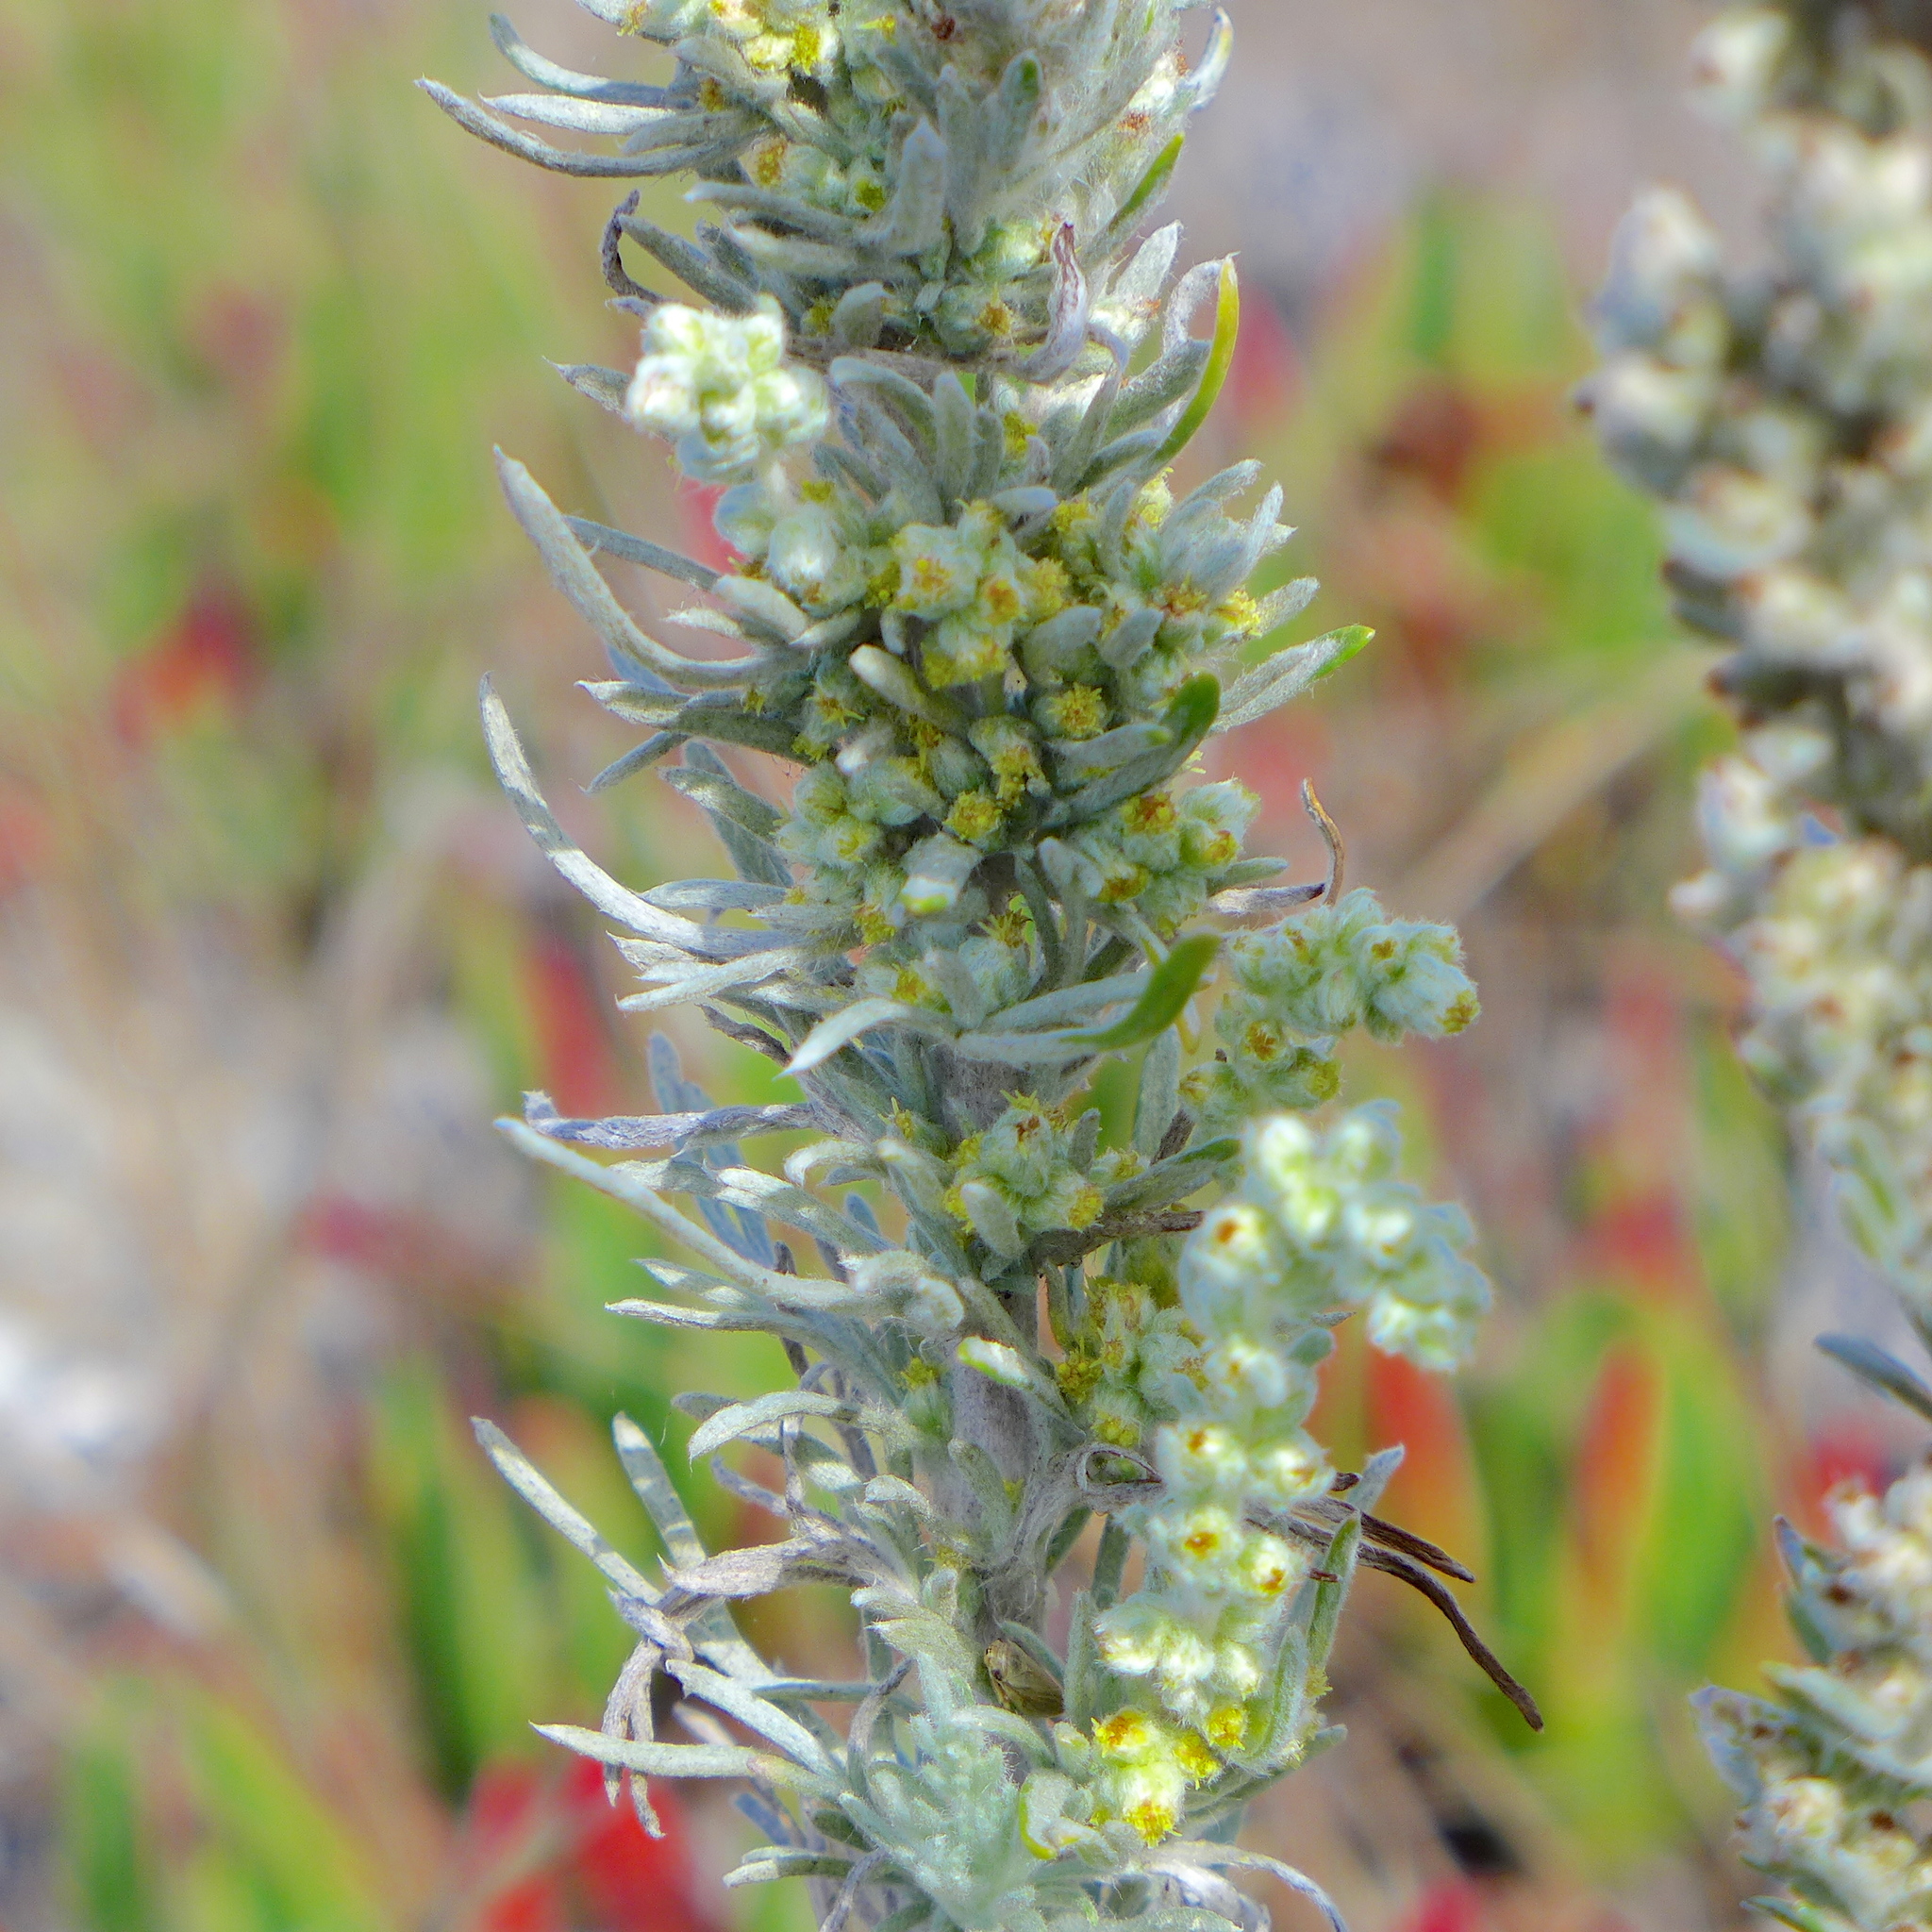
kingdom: Plantae
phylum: Tracheophyta
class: Magnoliopsida
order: Asterales
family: Asteraceae
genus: Artemisia
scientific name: Artemisia pycnocephala
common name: Coastal sagewort
